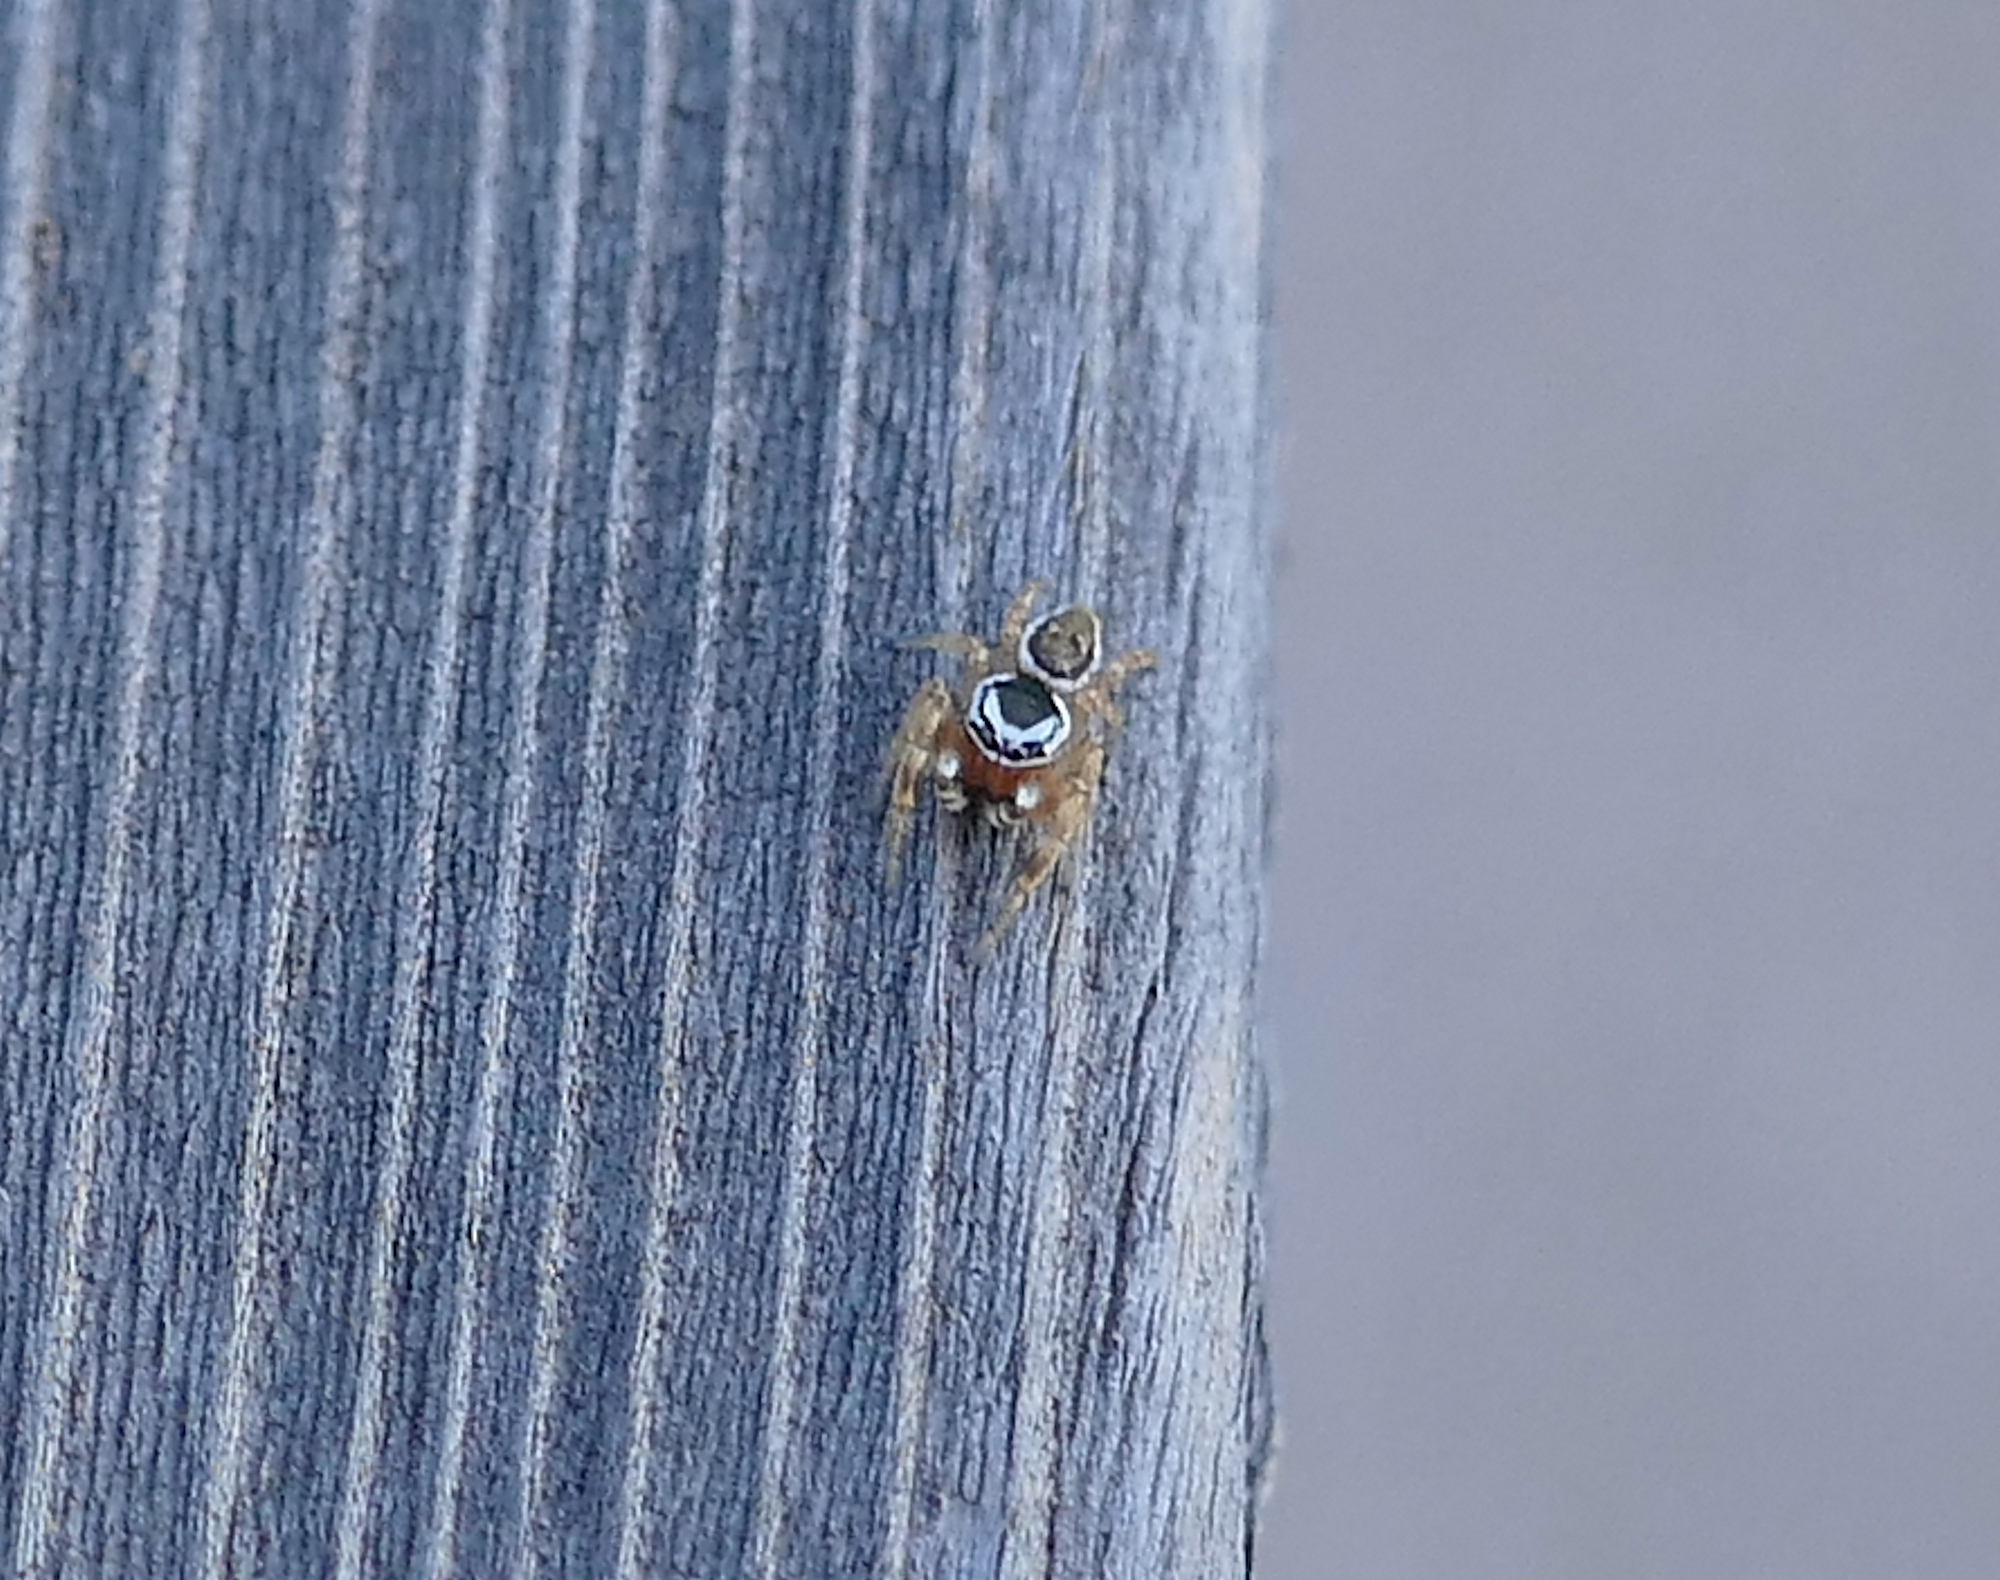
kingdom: Animalia
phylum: Arthropoda
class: Arachnida
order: Araneae
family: Salticidae
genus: Pelegrina
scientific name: Pelegrina kastoni
